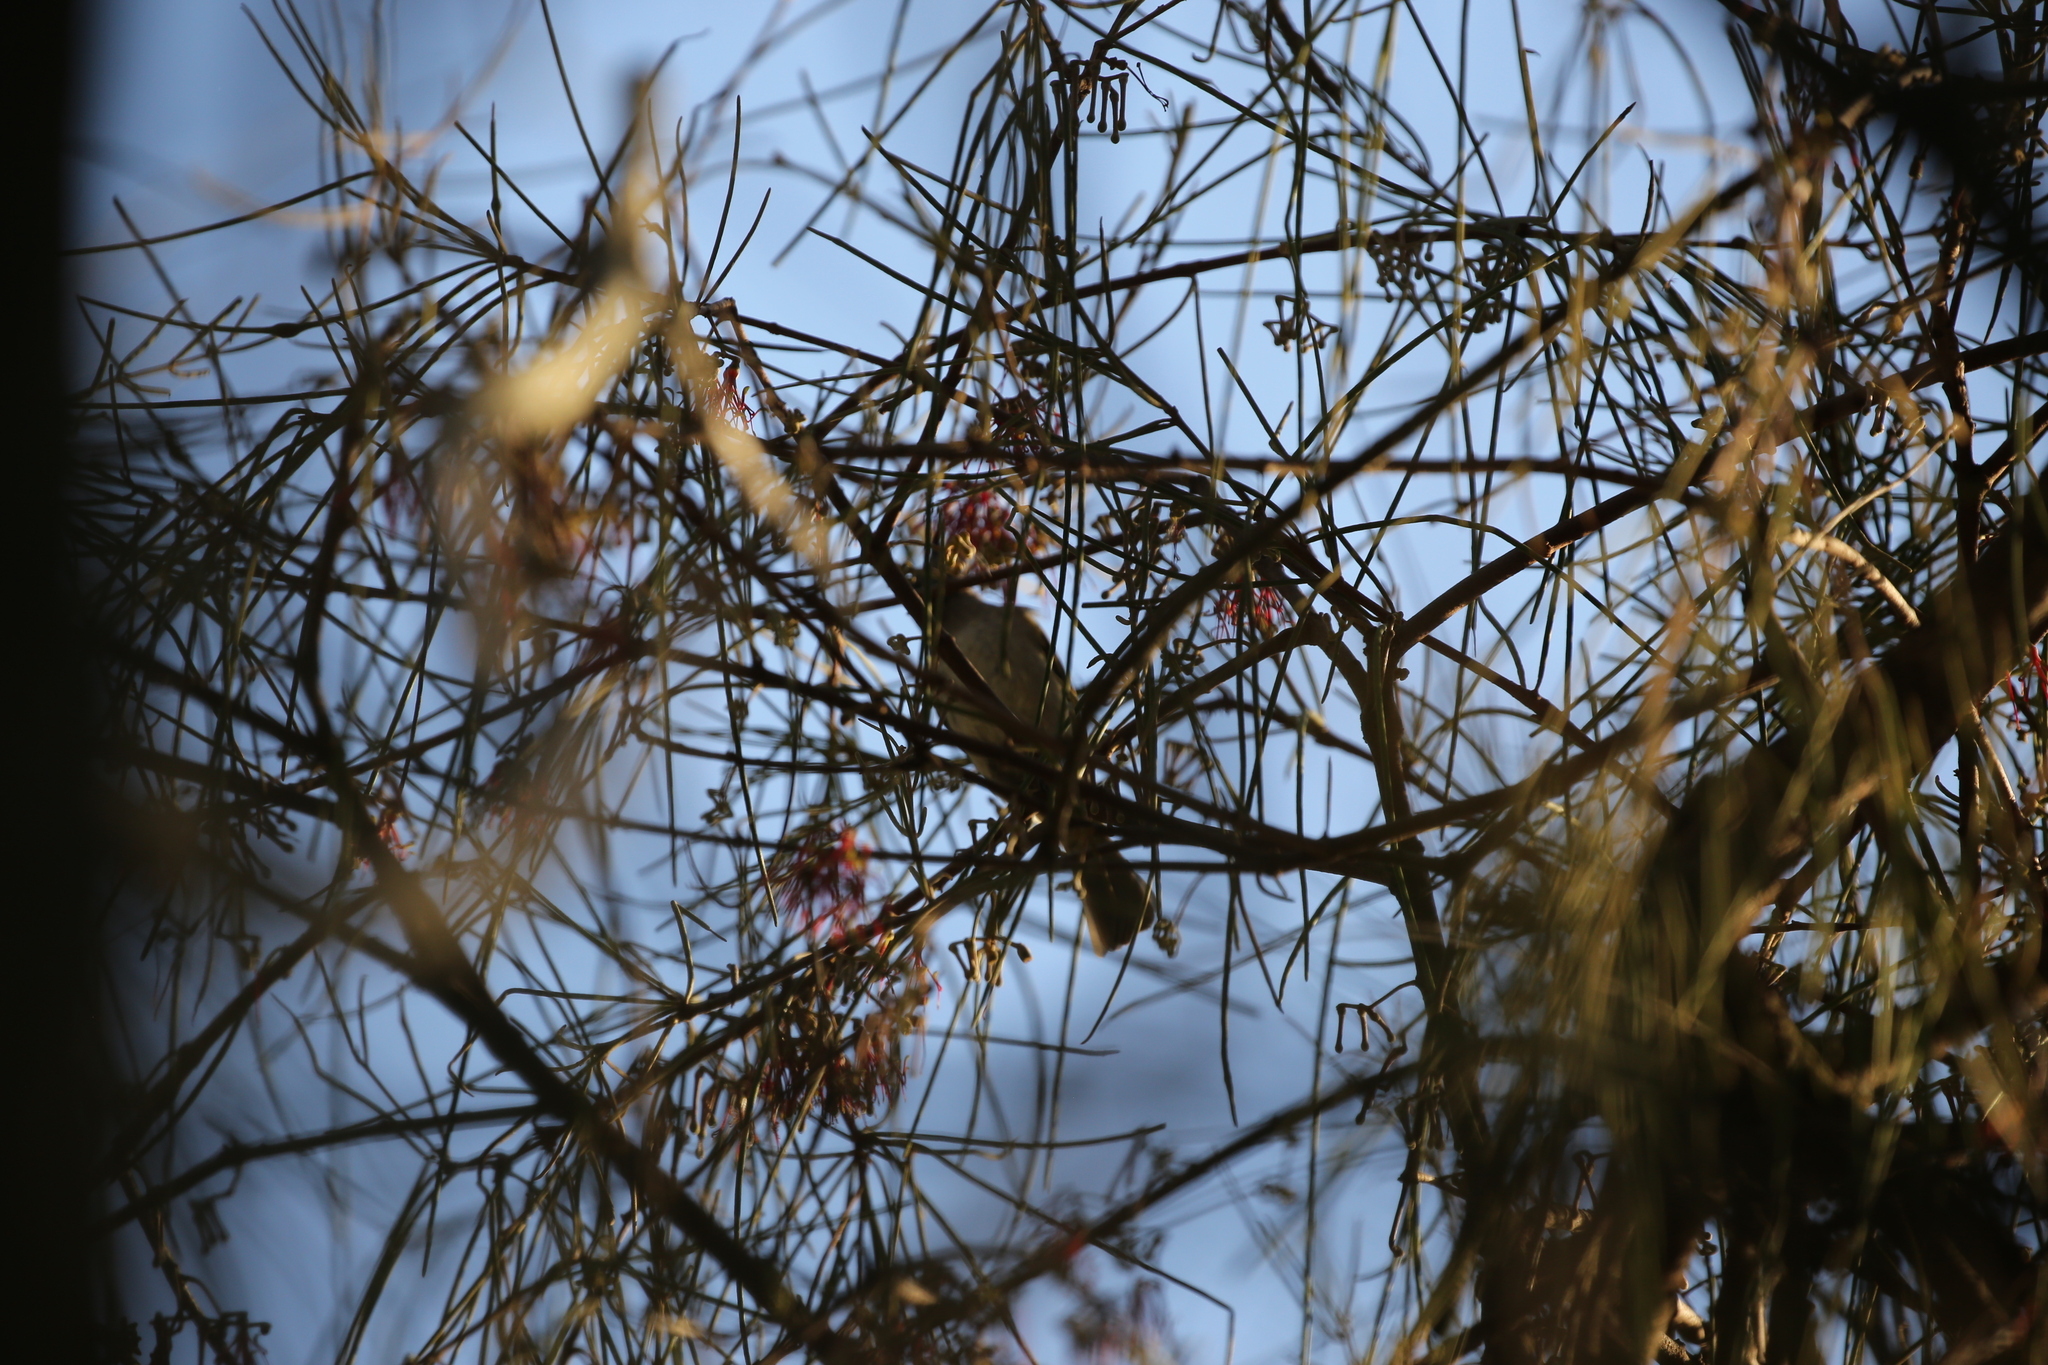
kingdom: Animalia
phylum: Chordata
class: Aves
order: Passeriformes
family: Meliphagidae
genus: Lichmera
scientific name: Lichmera indistincta
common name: Brown honeyeater
